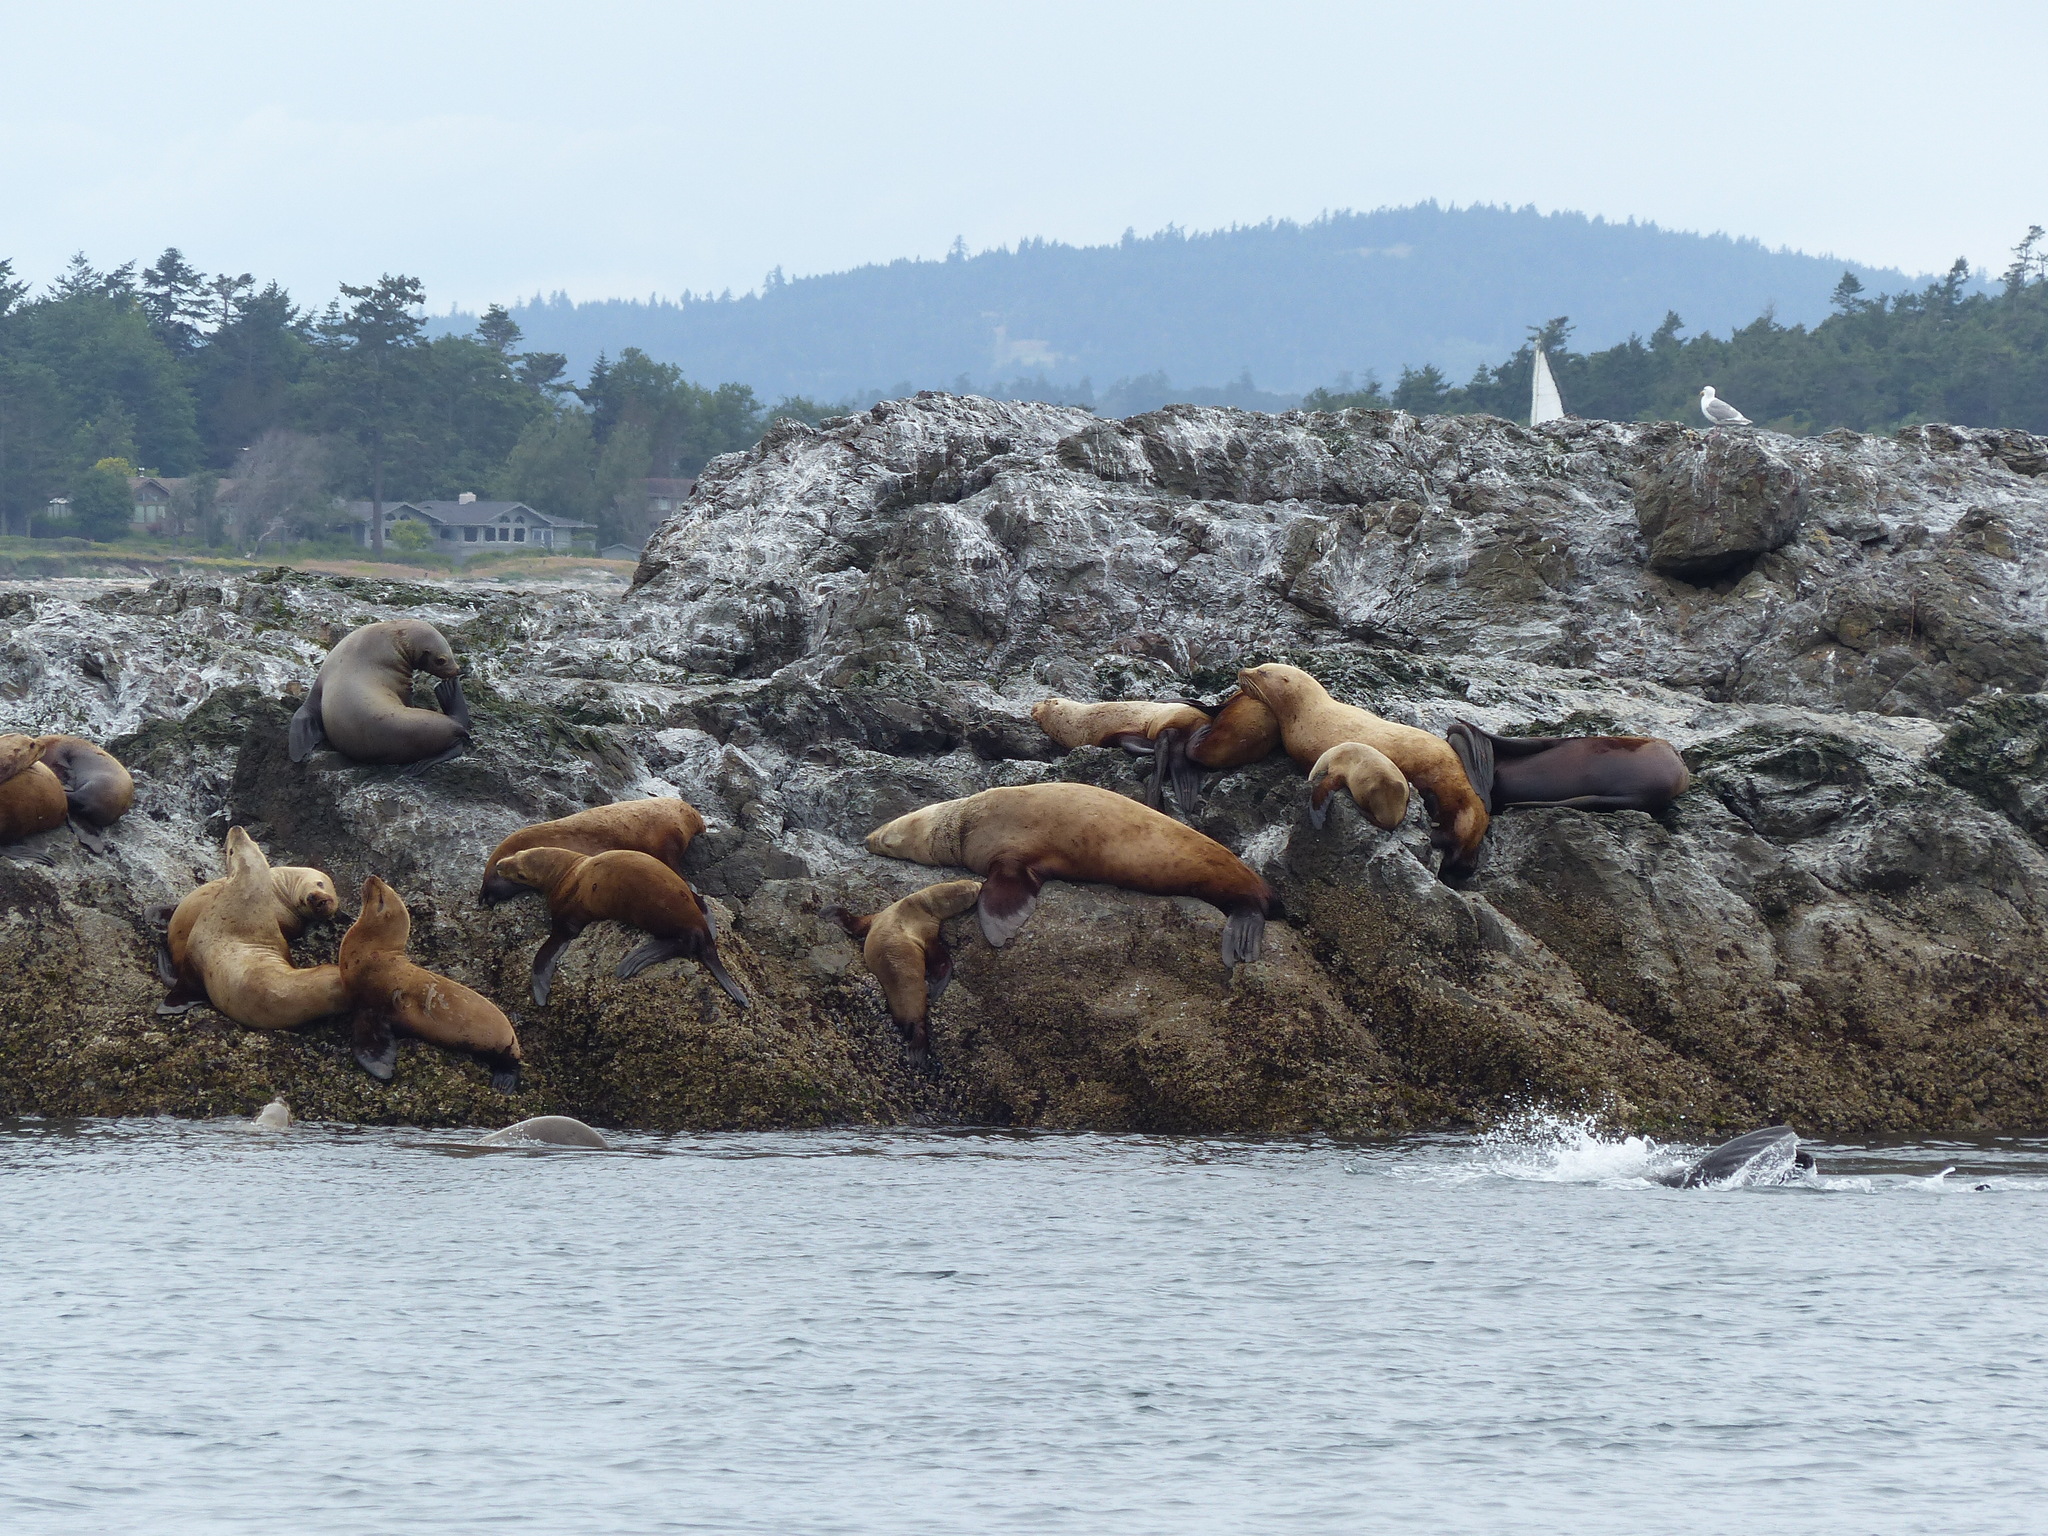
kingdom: Animalia
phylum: Chordata
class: Mammalia
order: Carnivora
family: Otariidae
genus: Eumetopias
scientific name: Eumetopias jubatus
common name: Steller sea lion
